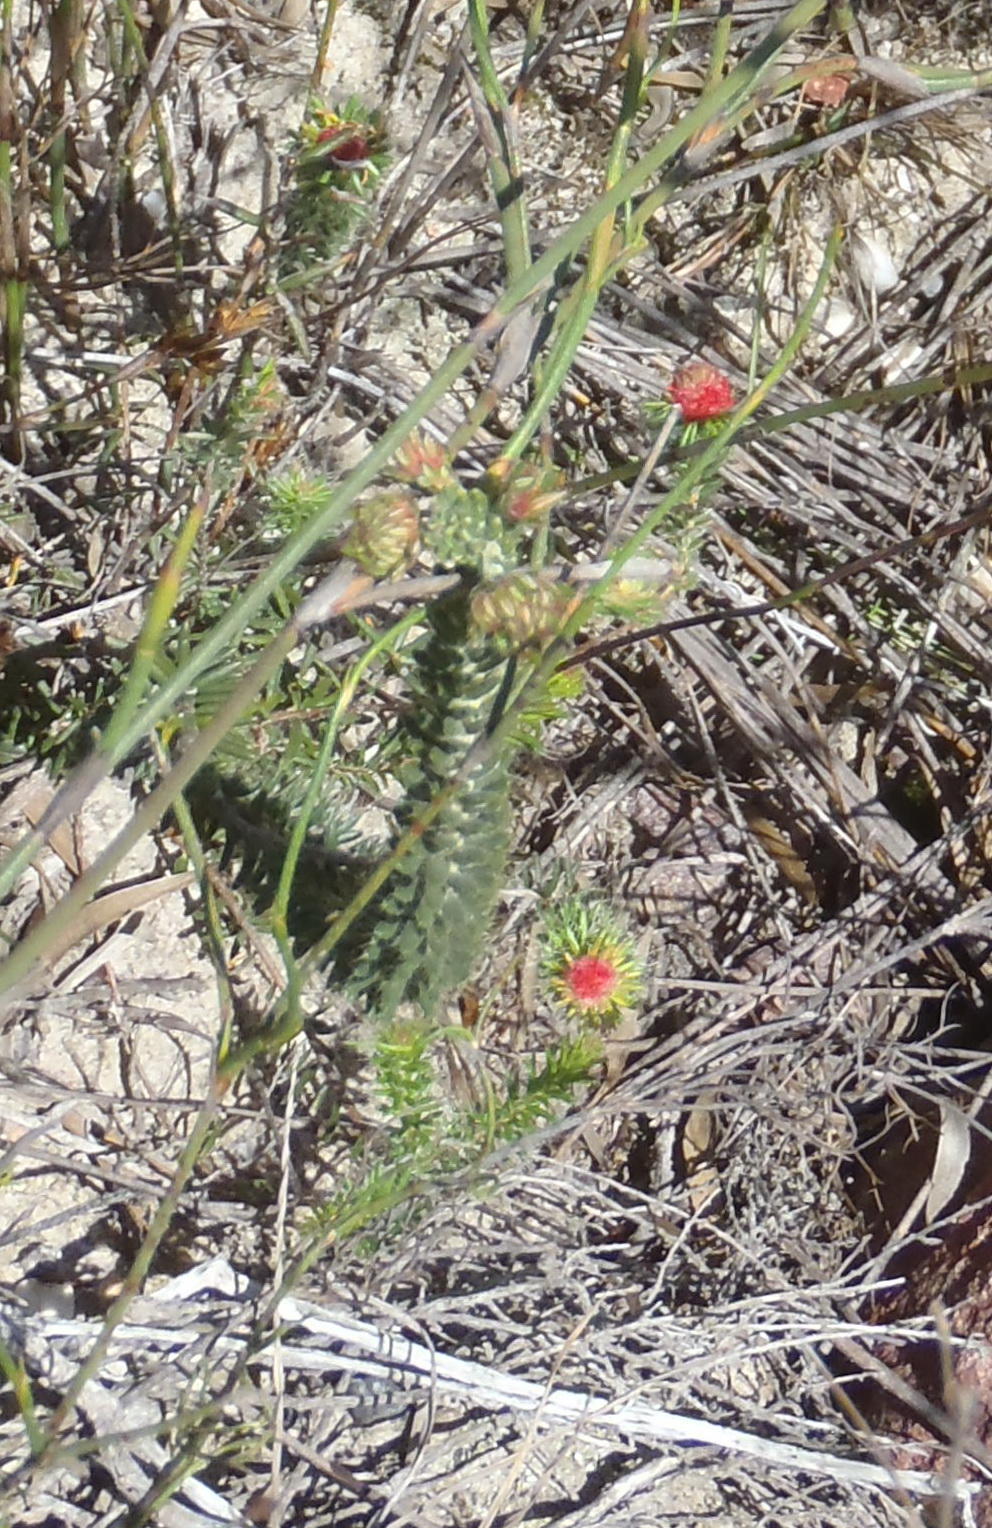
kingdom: Plantae
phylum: Tracheophyta
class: Magnoliopsida
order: Ericales
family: Ericaceae
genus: Erica
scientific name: Erica cerinthoides
